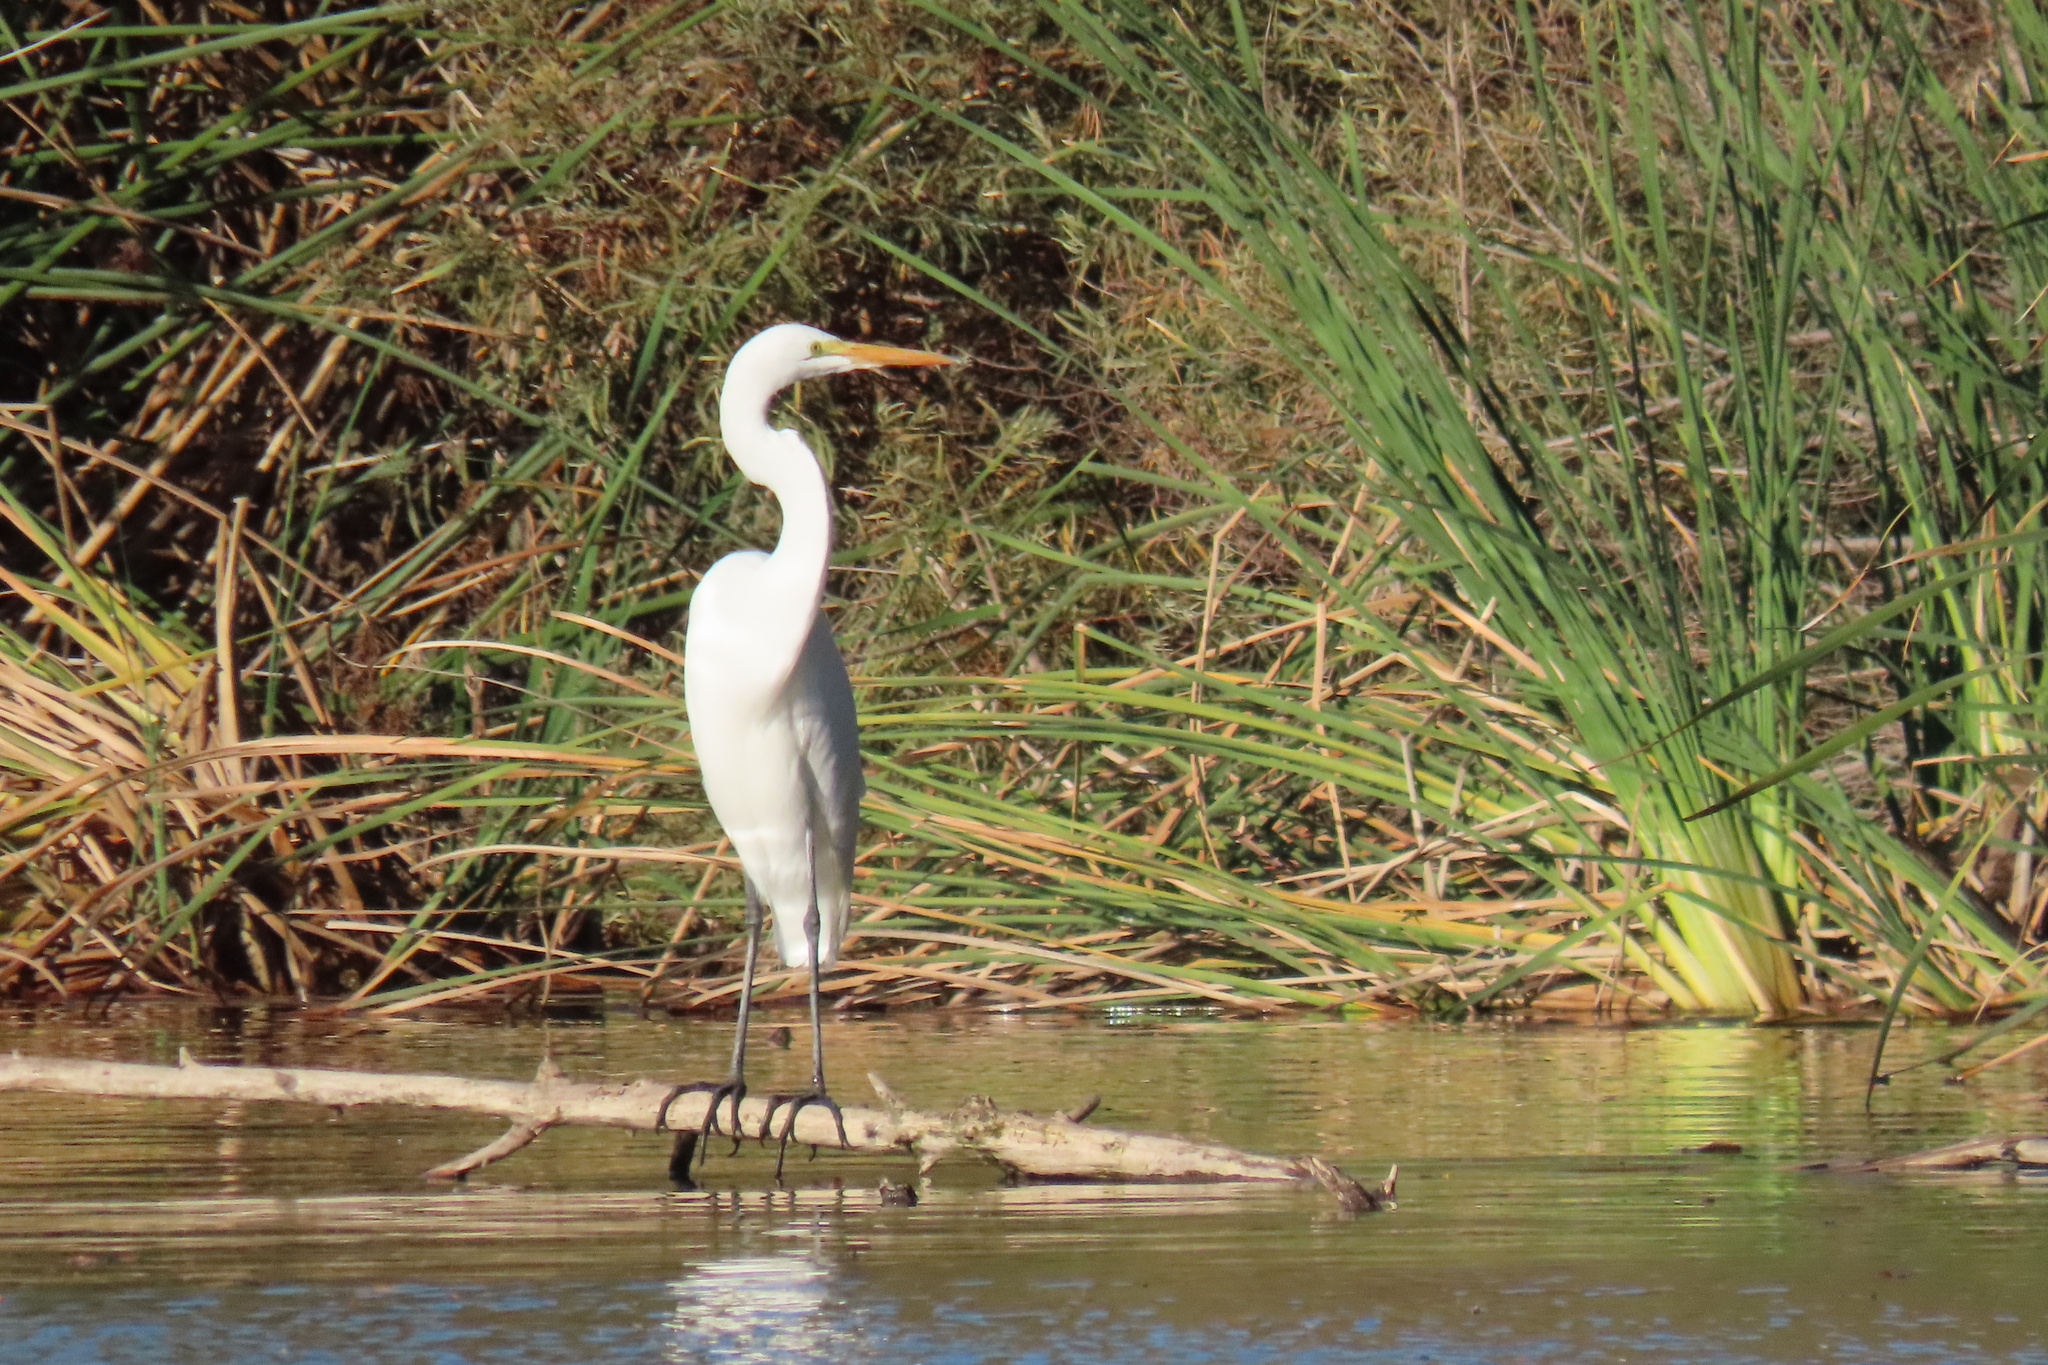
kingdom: Animalia
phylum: Chordata
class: Aves
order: Pelecaniformes
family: Ardeidae
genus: Ardea
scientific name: Ardea alba
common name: Great egret
